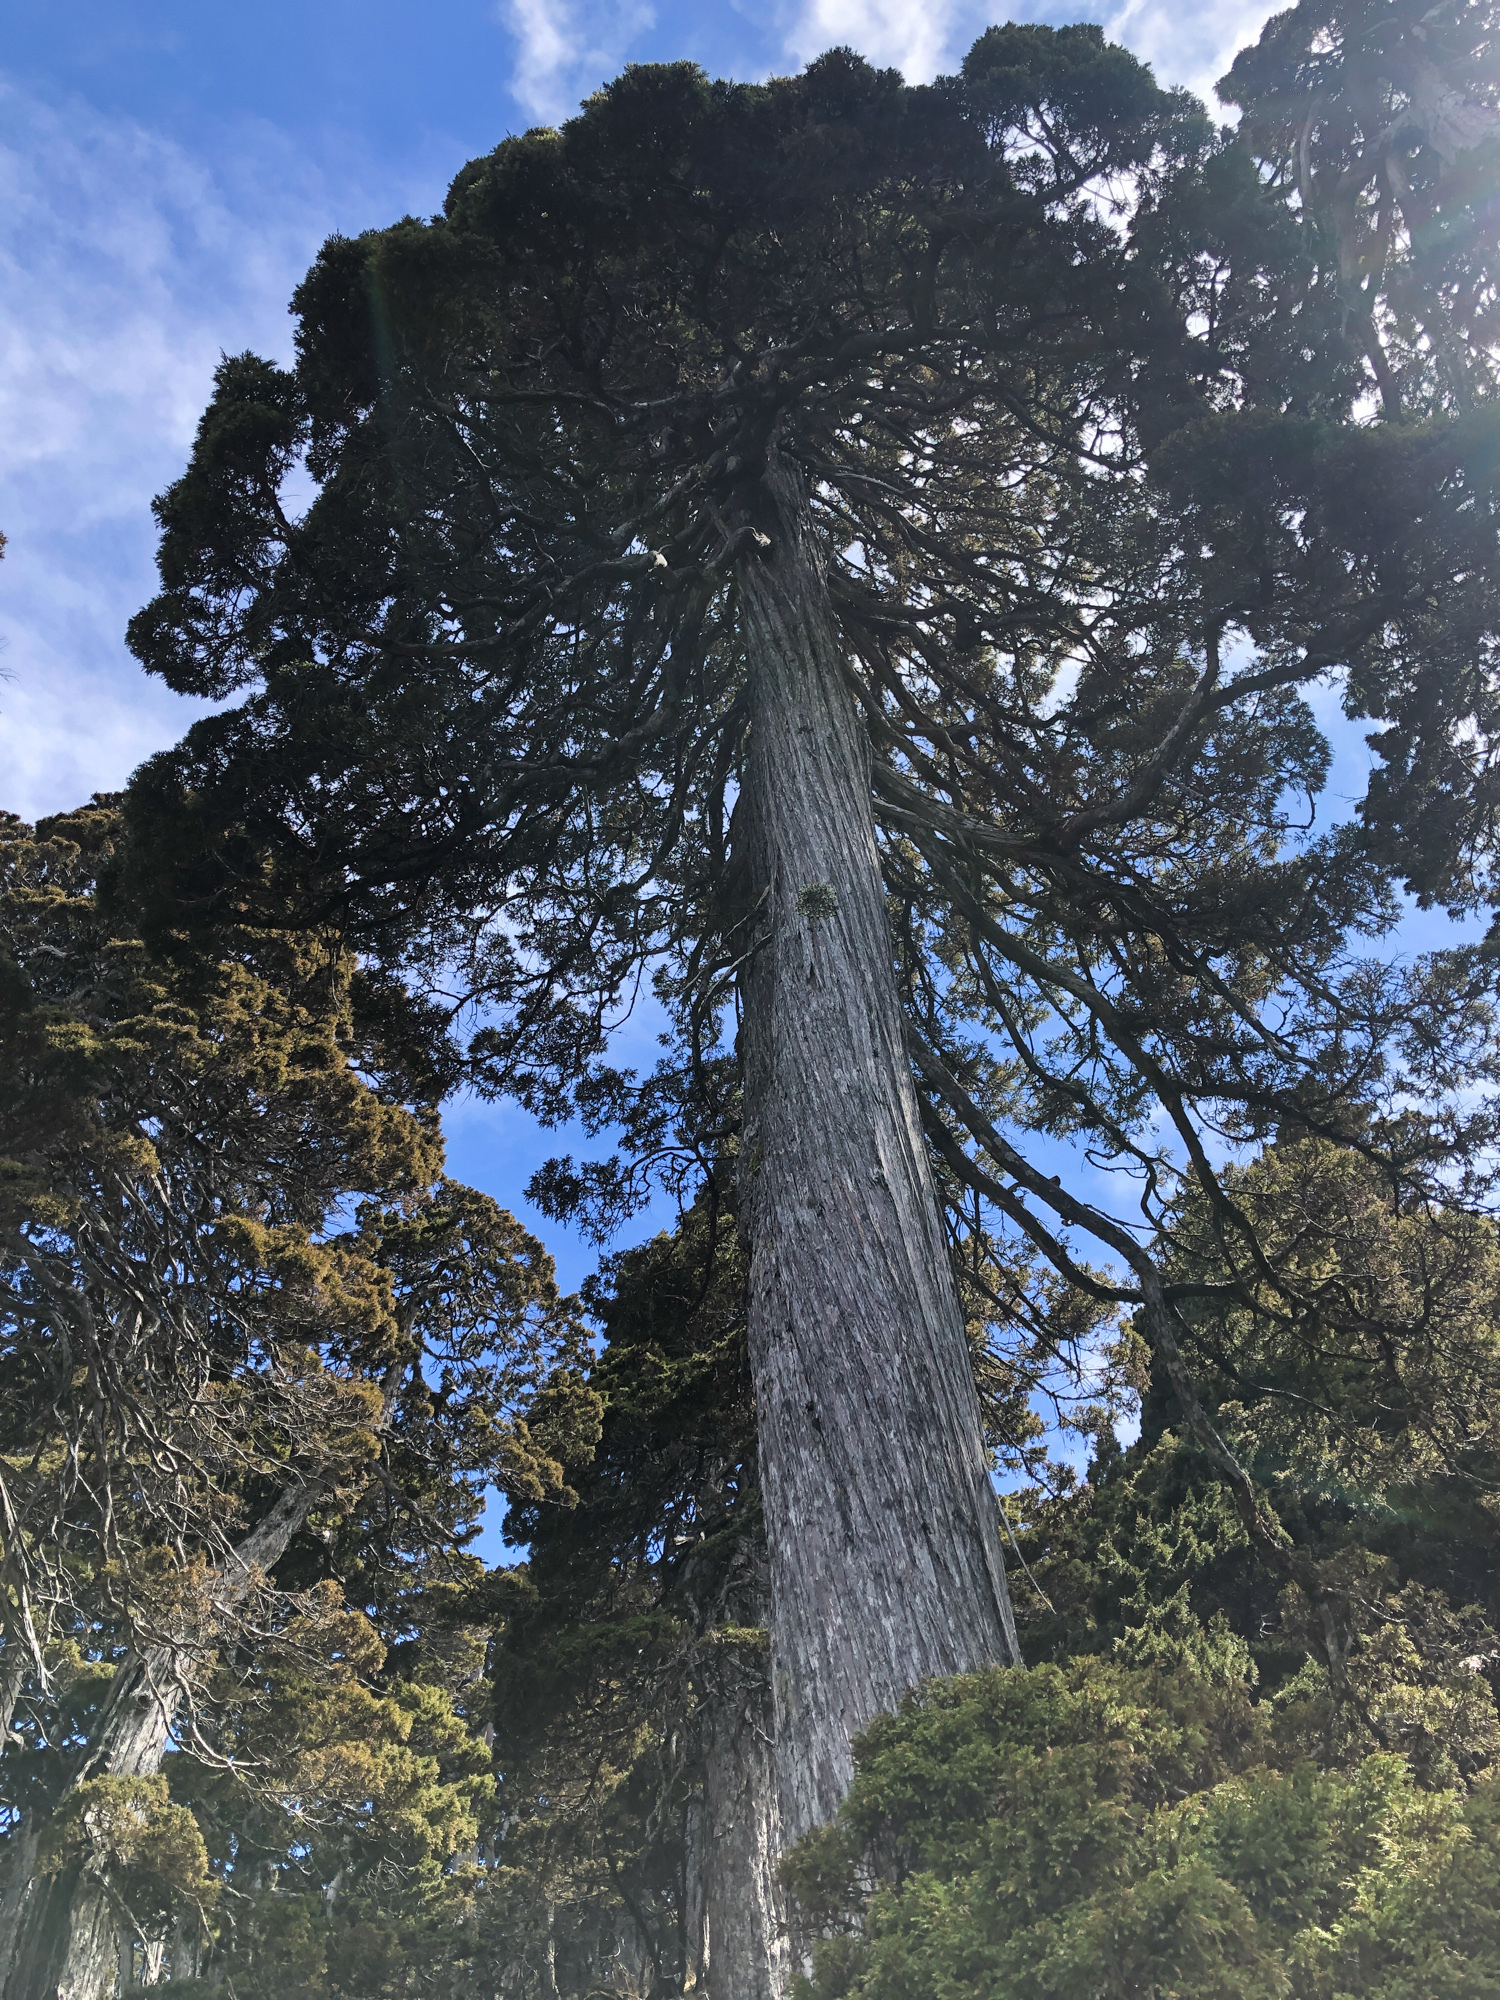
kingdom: Plantae
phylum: Tracheophyta
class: Pinopsida
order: Pinales
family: Cupressaceae
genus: Juniperus
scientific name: Juniperus squamata
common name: Flaky juniper
